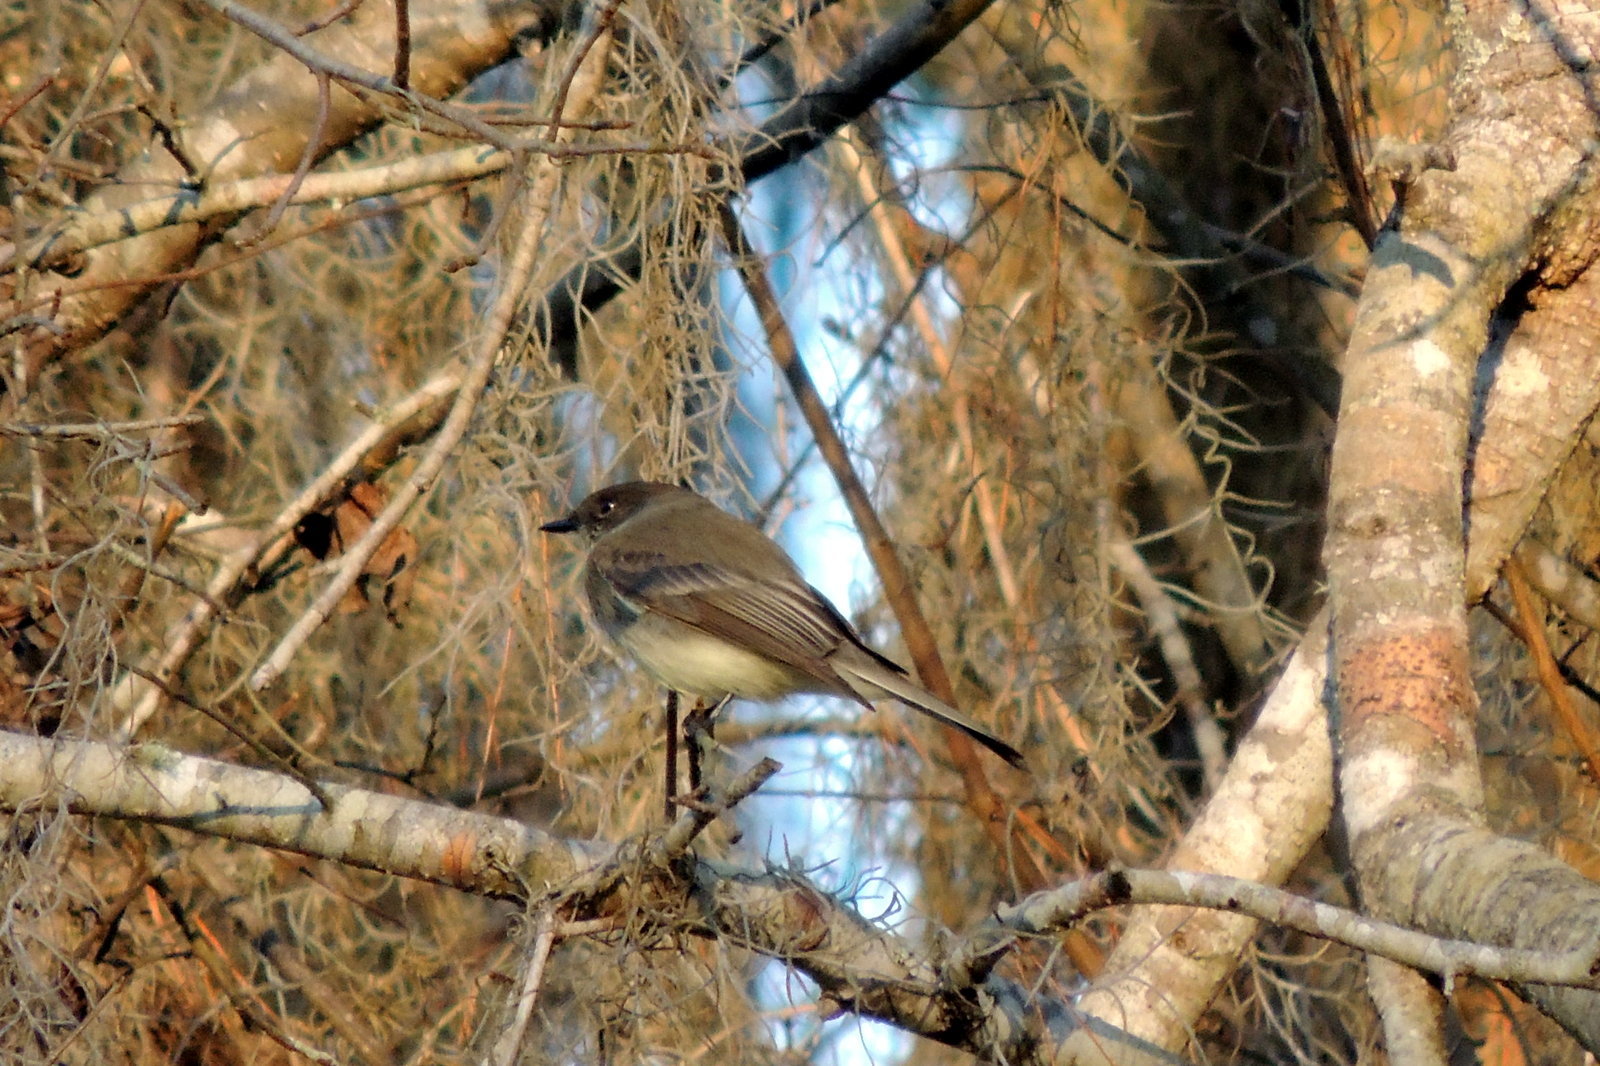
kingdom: Animalia
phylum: Chordata
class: Aves
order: Passeriformes
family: Tyrannidae
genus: Sayornis
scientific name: Sayornis phoebe
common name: Eastern phoebe
